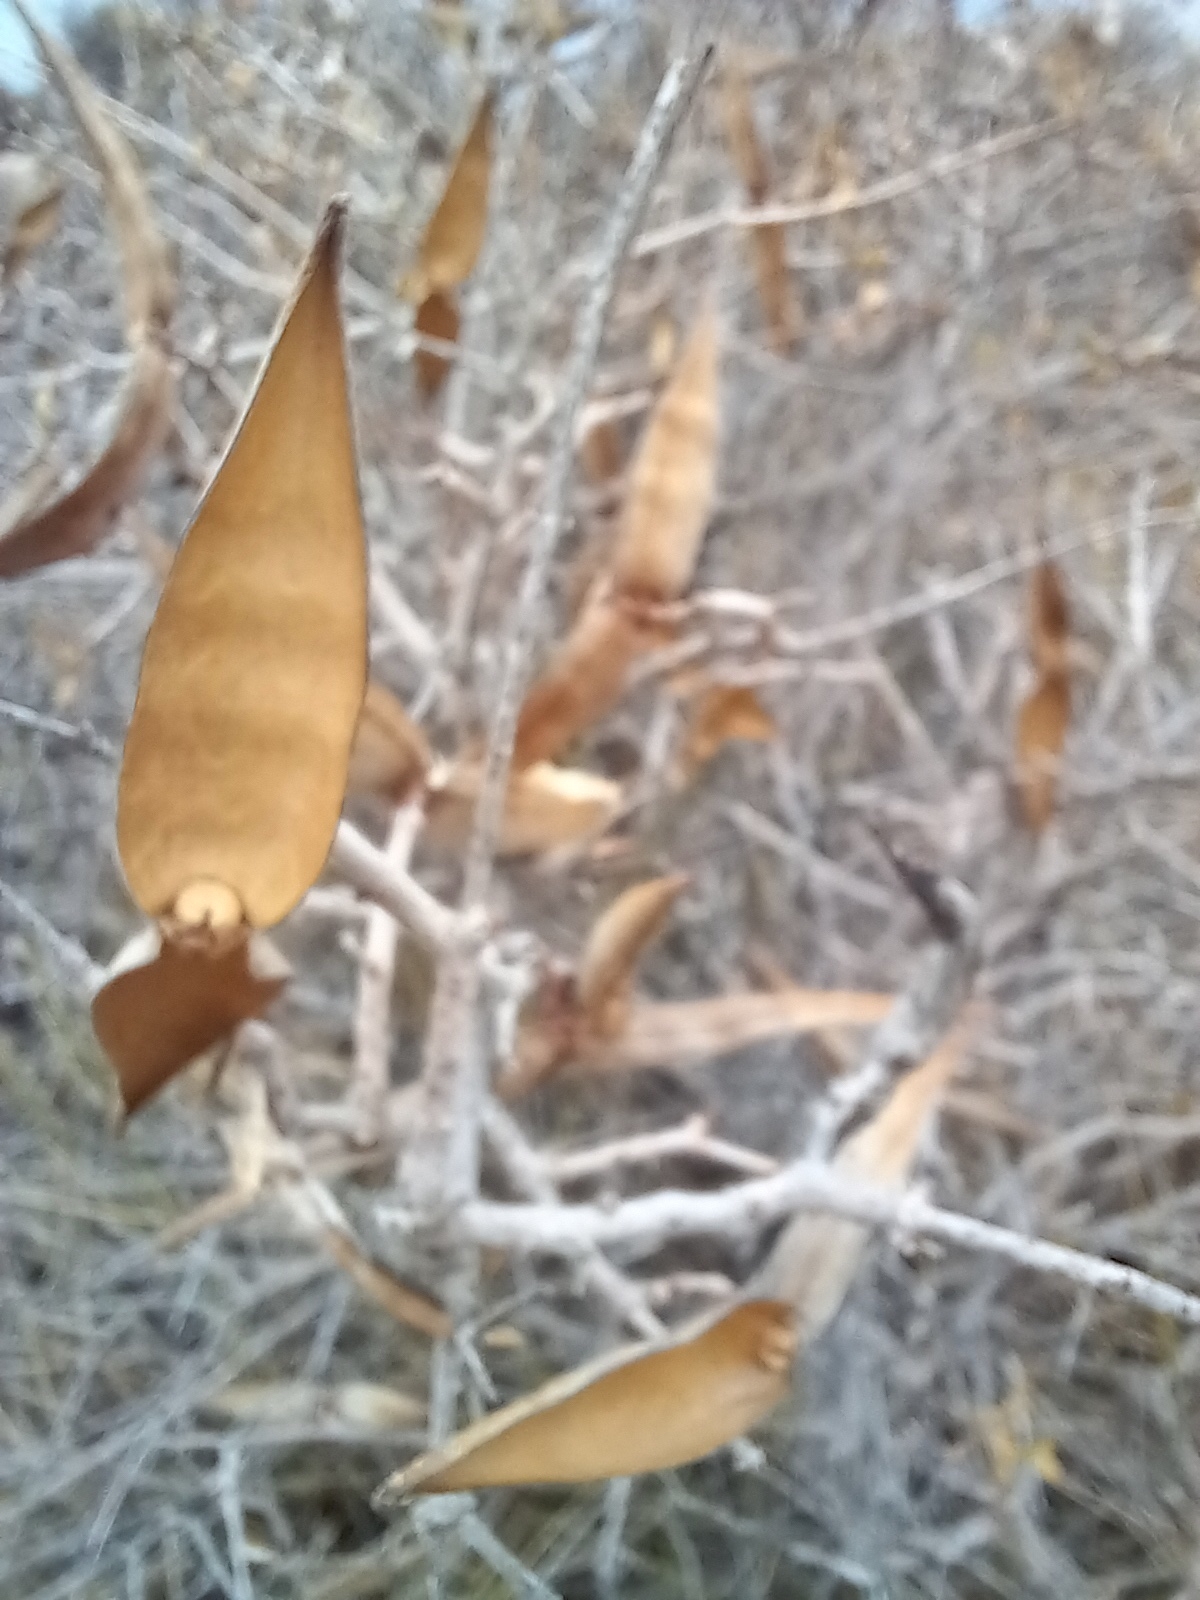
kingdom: Plantae
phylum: Tracheophyta
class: Magnoliopsida
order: Gentianales
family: Apocynaceae
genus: Periploca
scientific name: Periploca laevigata
